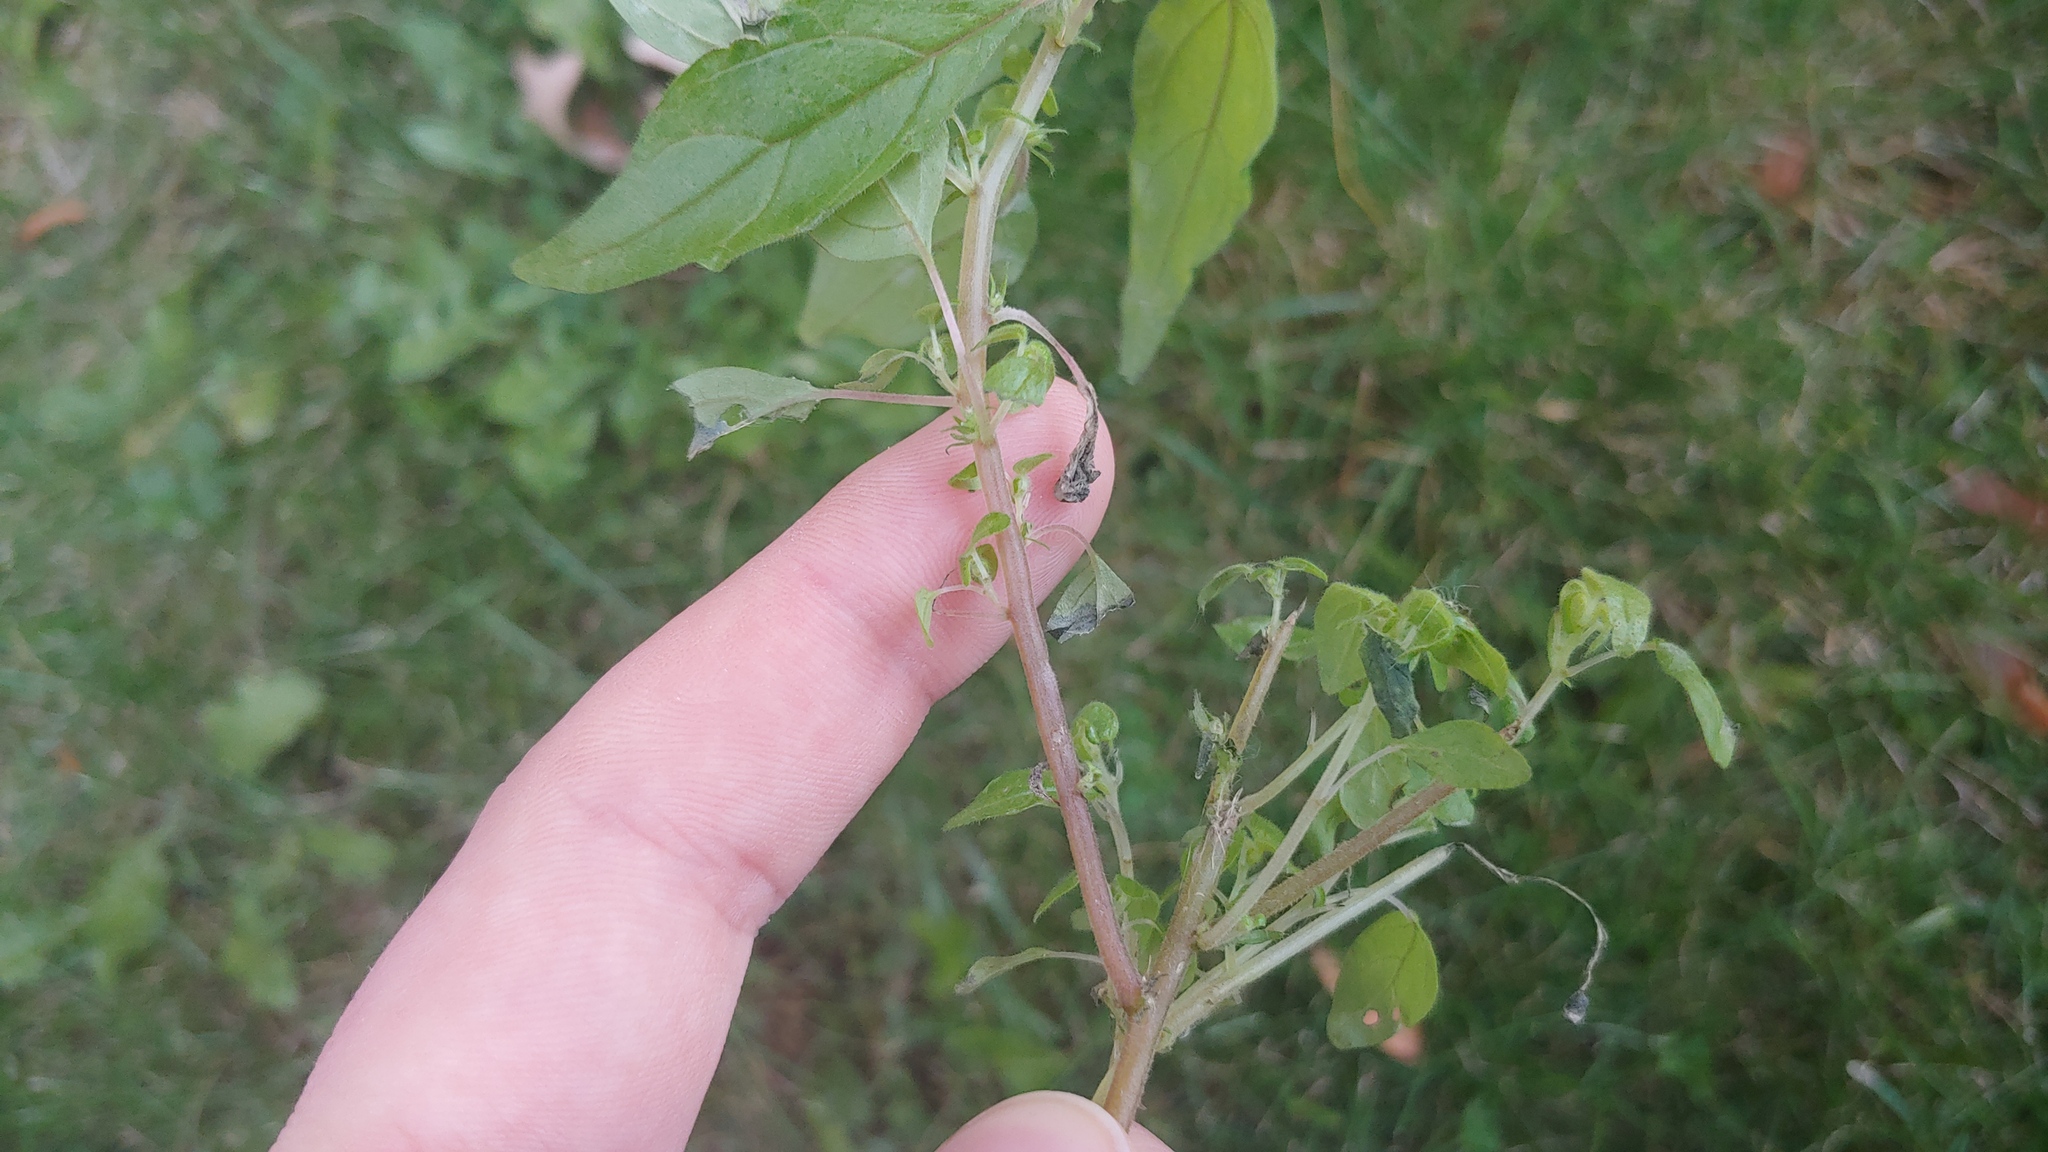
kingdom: Plantae
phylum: Tracheophyta
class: Magnoliopsida
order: Rosales
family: Urticaceae
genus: Parietaria
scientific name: Parietaria pensylvanica
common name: Pennsylvania pellitory
